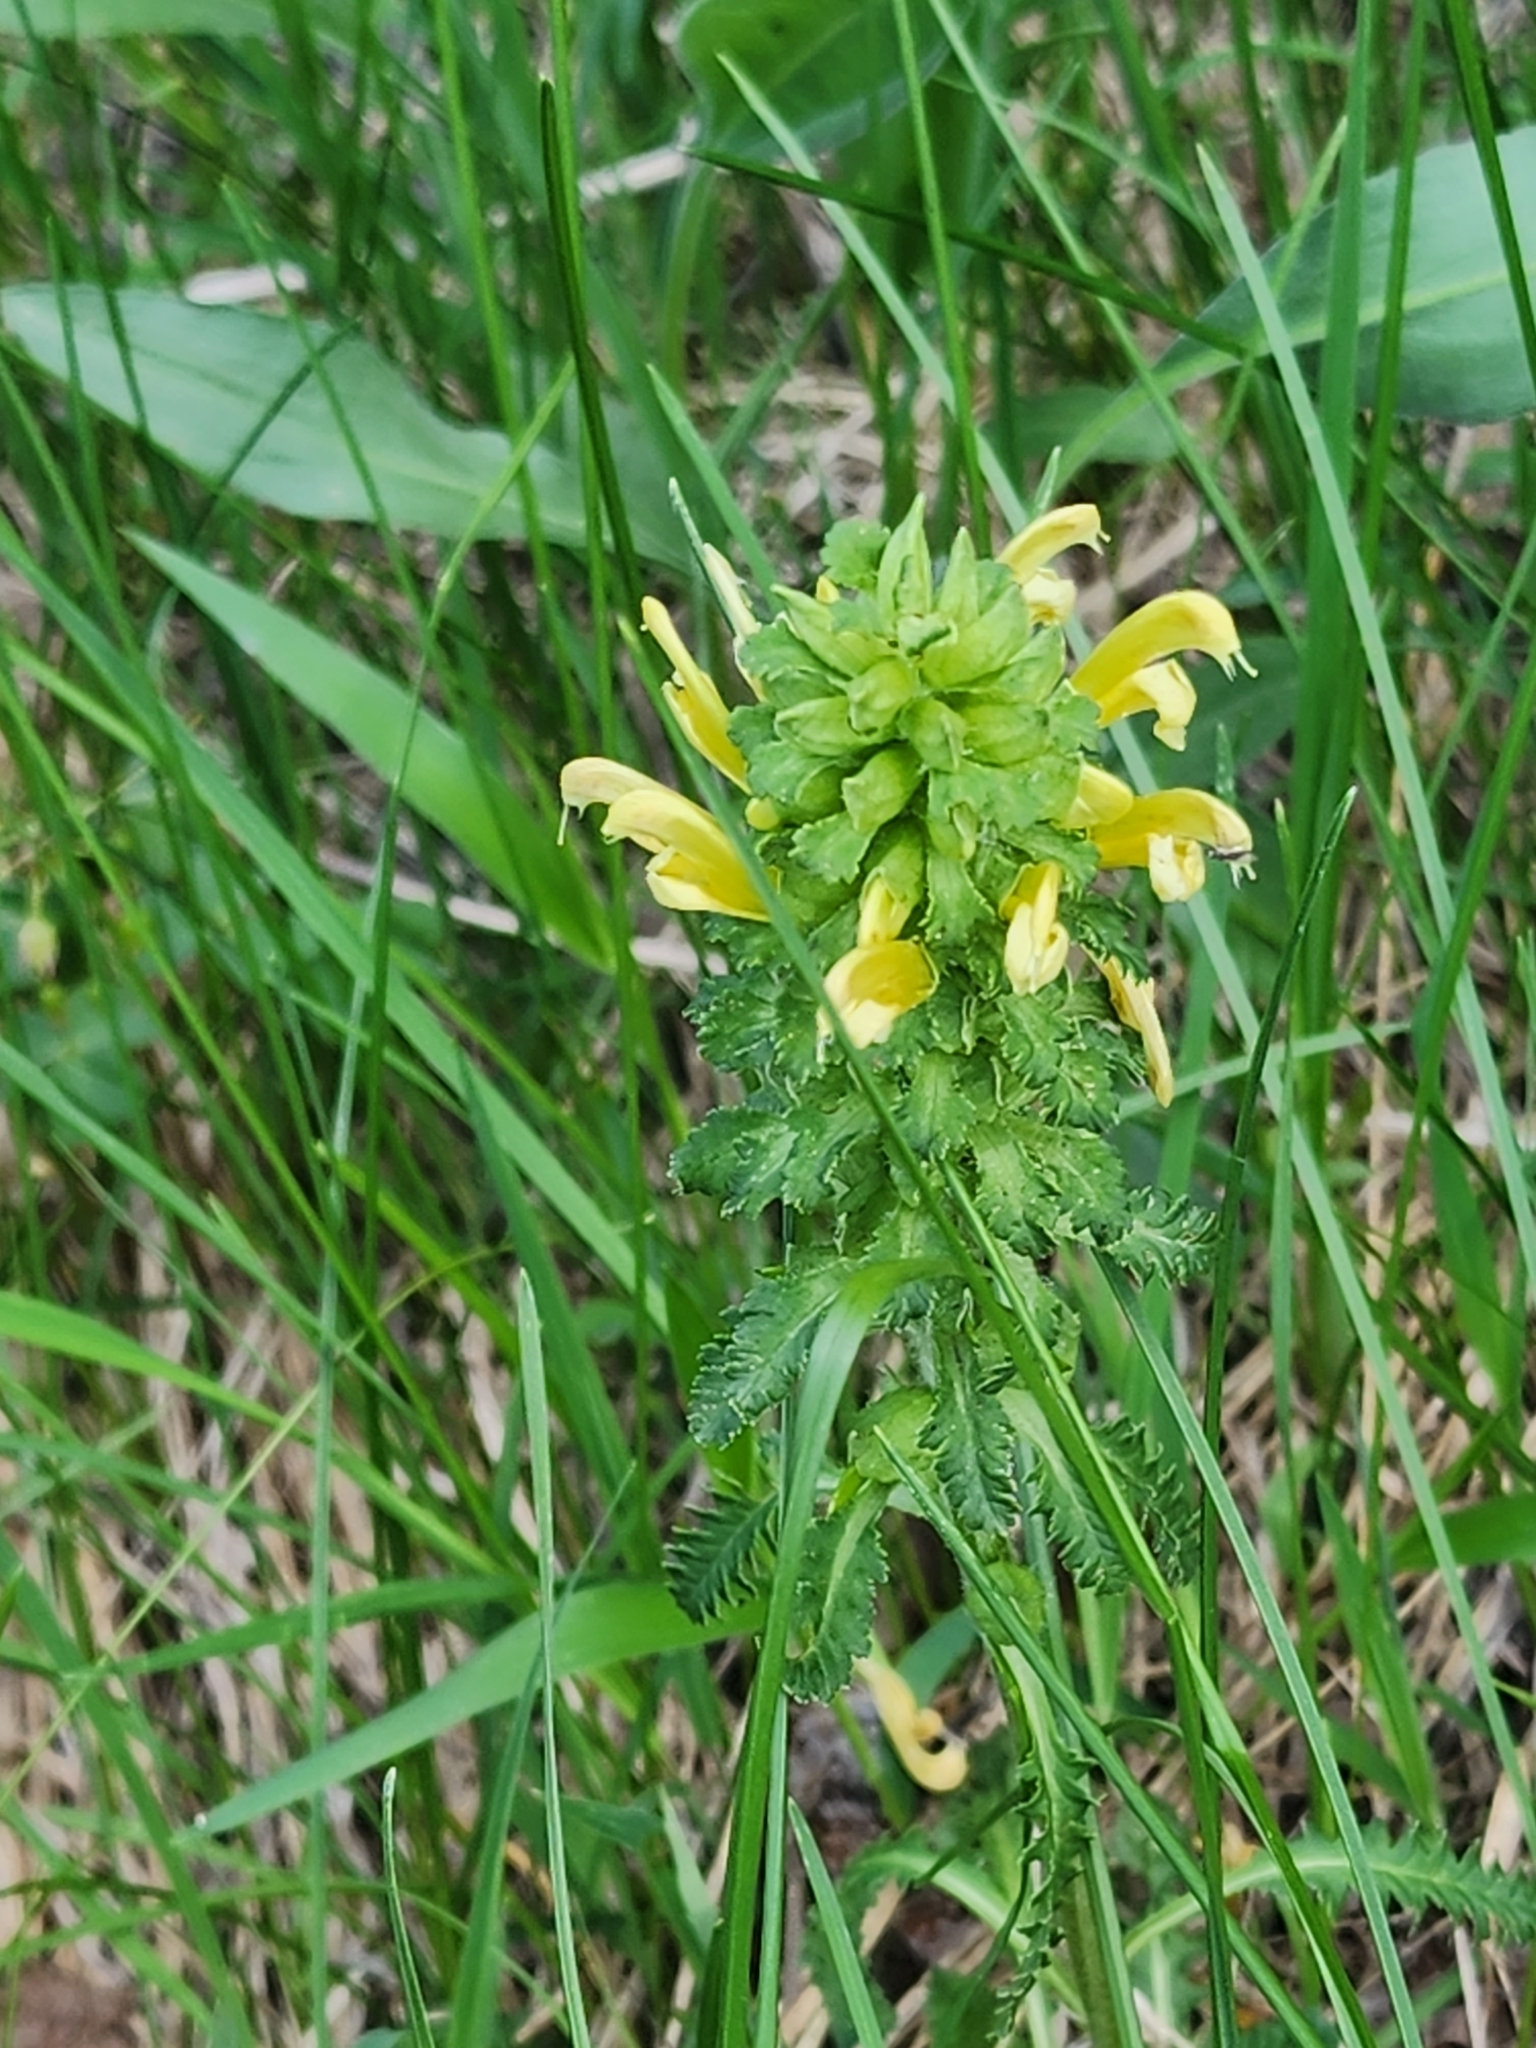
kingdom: Plantae
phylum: Tracheophyta
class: Magnoliopsida
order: Lamiales
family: Orobanchaceae
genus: Pedicularis
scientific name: Pedicularis canadensis
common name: Early lousewort
